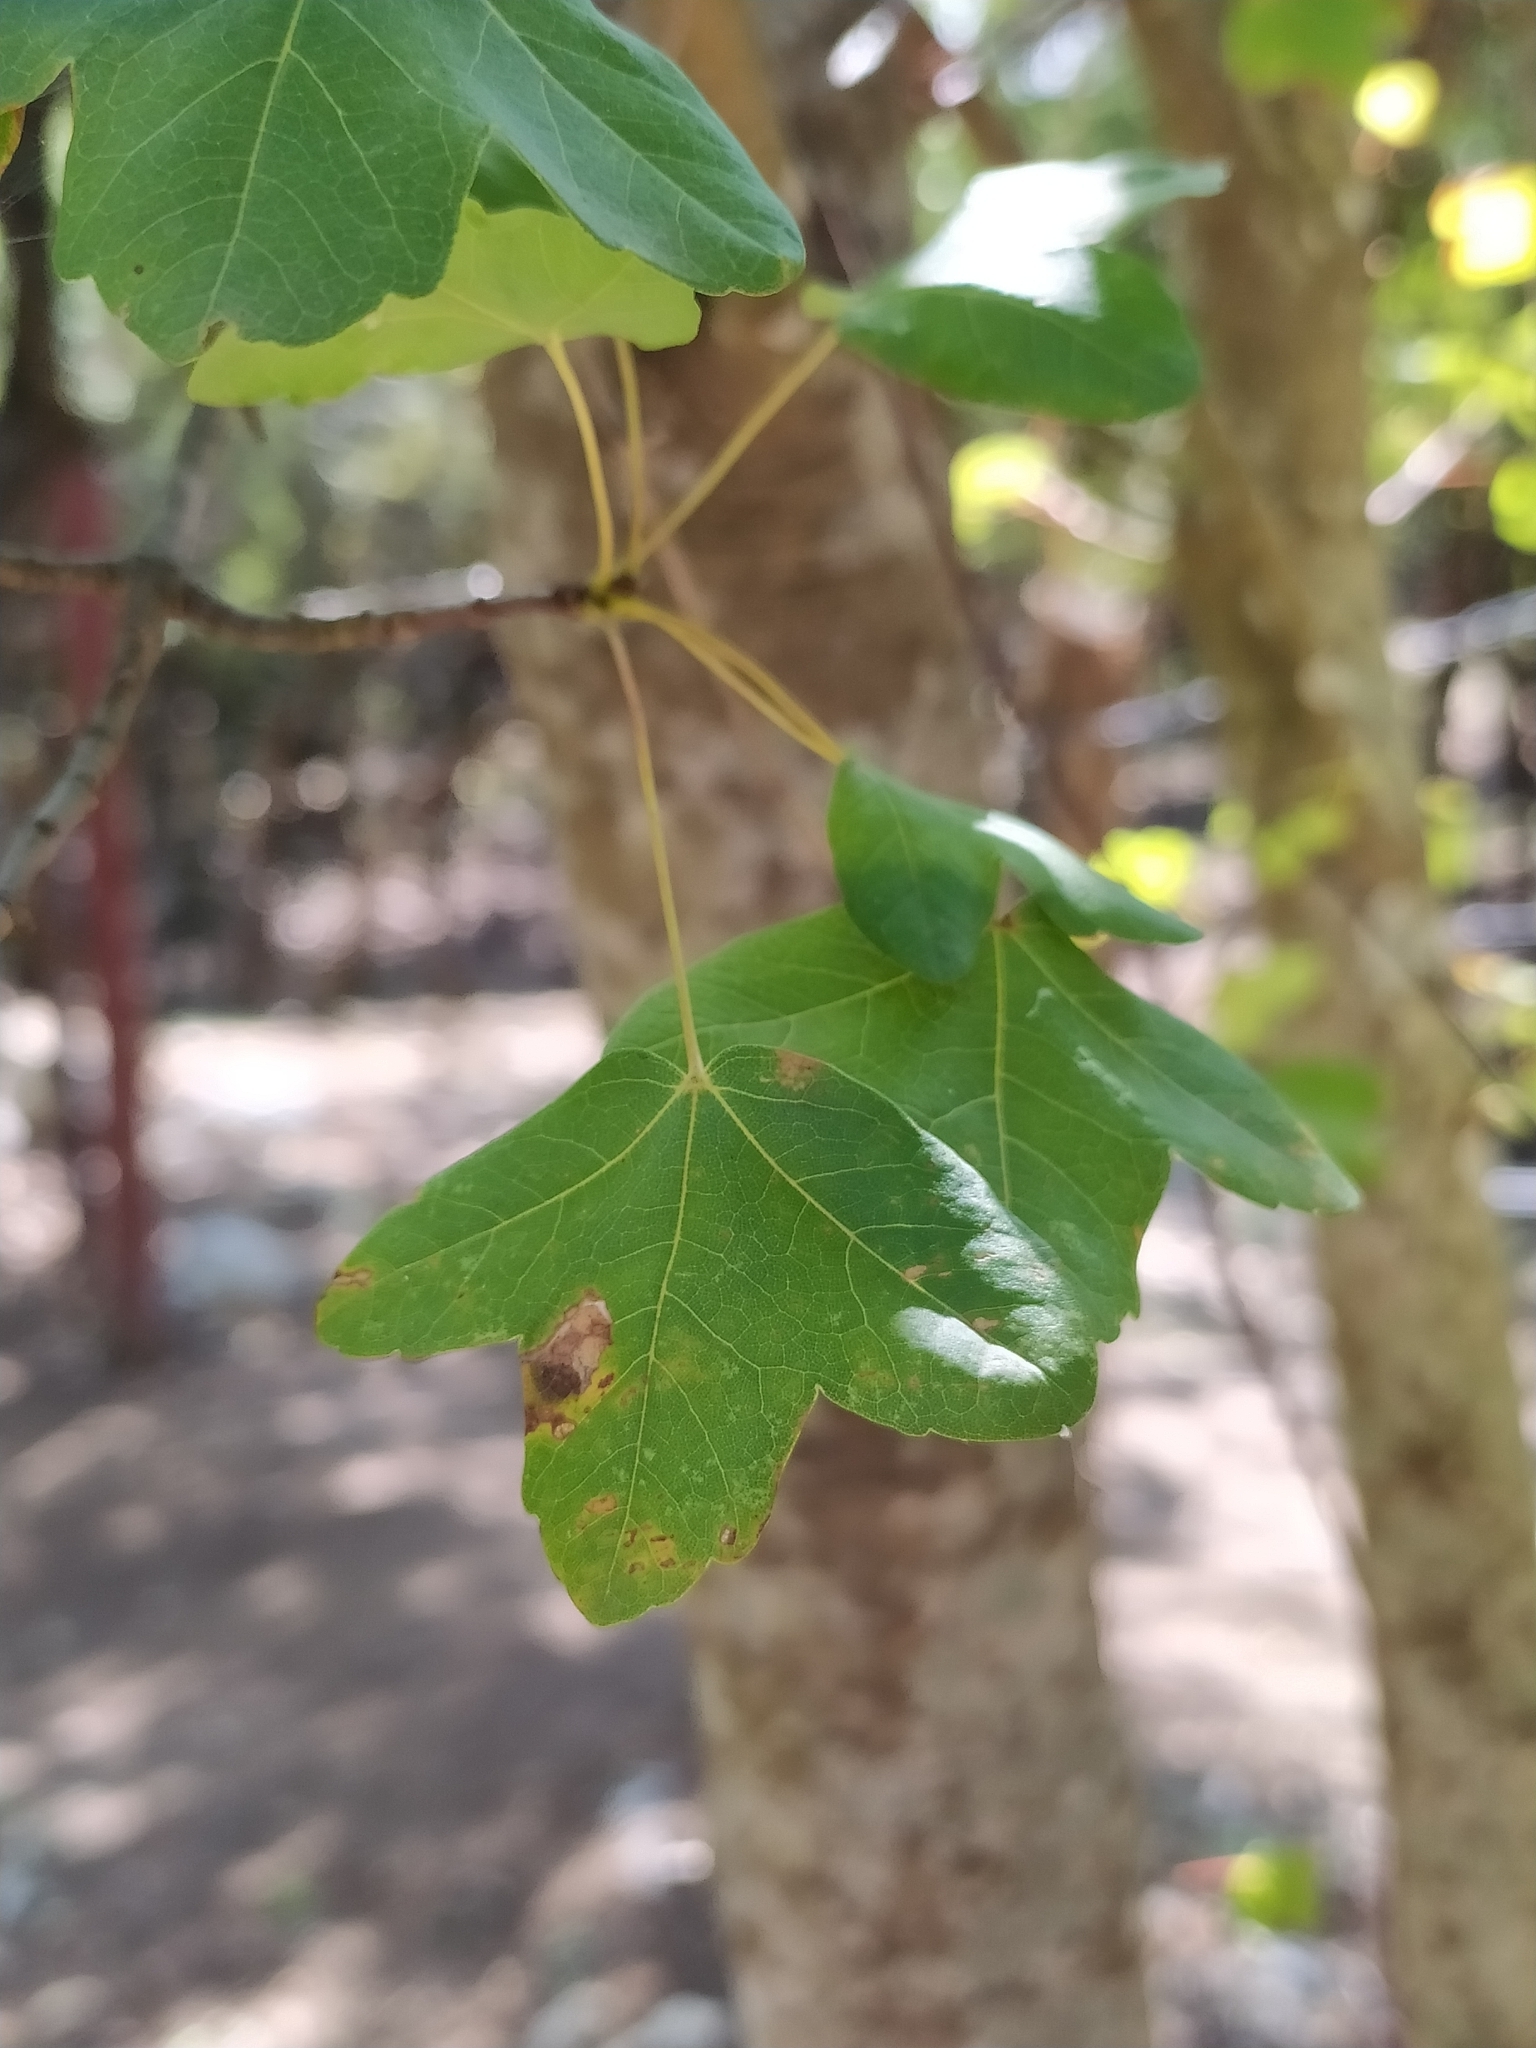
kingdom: Plantae
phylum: Tracheophyta
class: Magnoliopsida
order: Sapindales
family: Sapindaceae
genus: Acer
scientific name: Acer monspessulanum
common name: Montpellier maple
